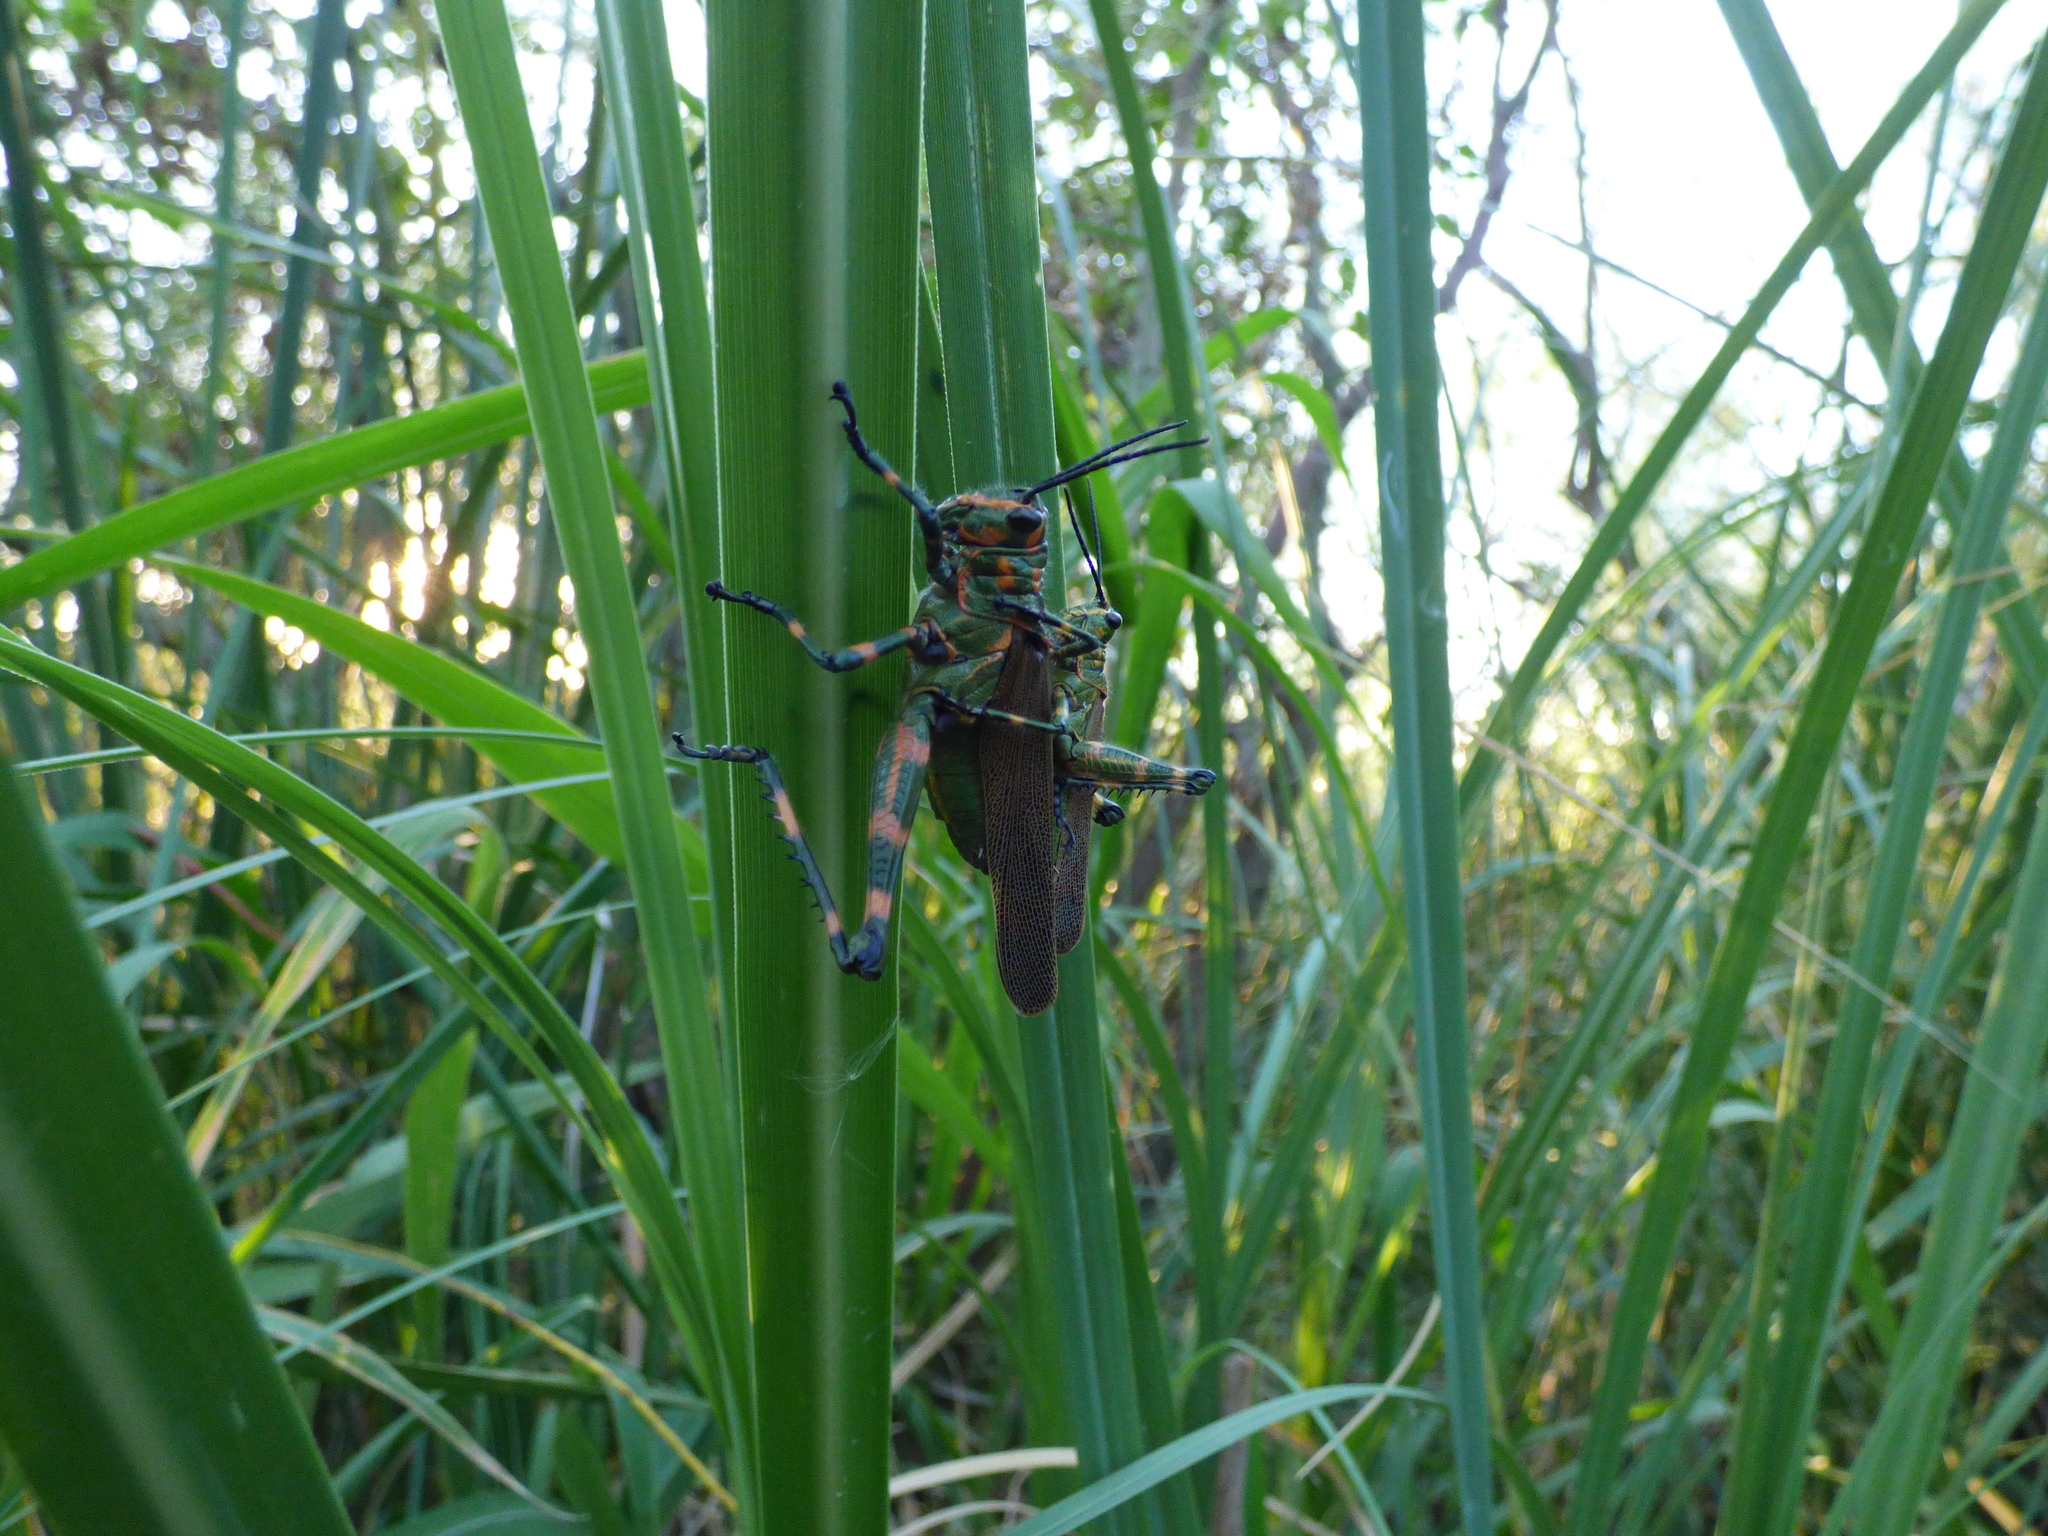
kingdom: Animalia
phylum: Arthropoda
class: Insecta
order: Orthoptera
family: Romaleidae
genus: Chromacris
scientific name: Chromacris speciosa
